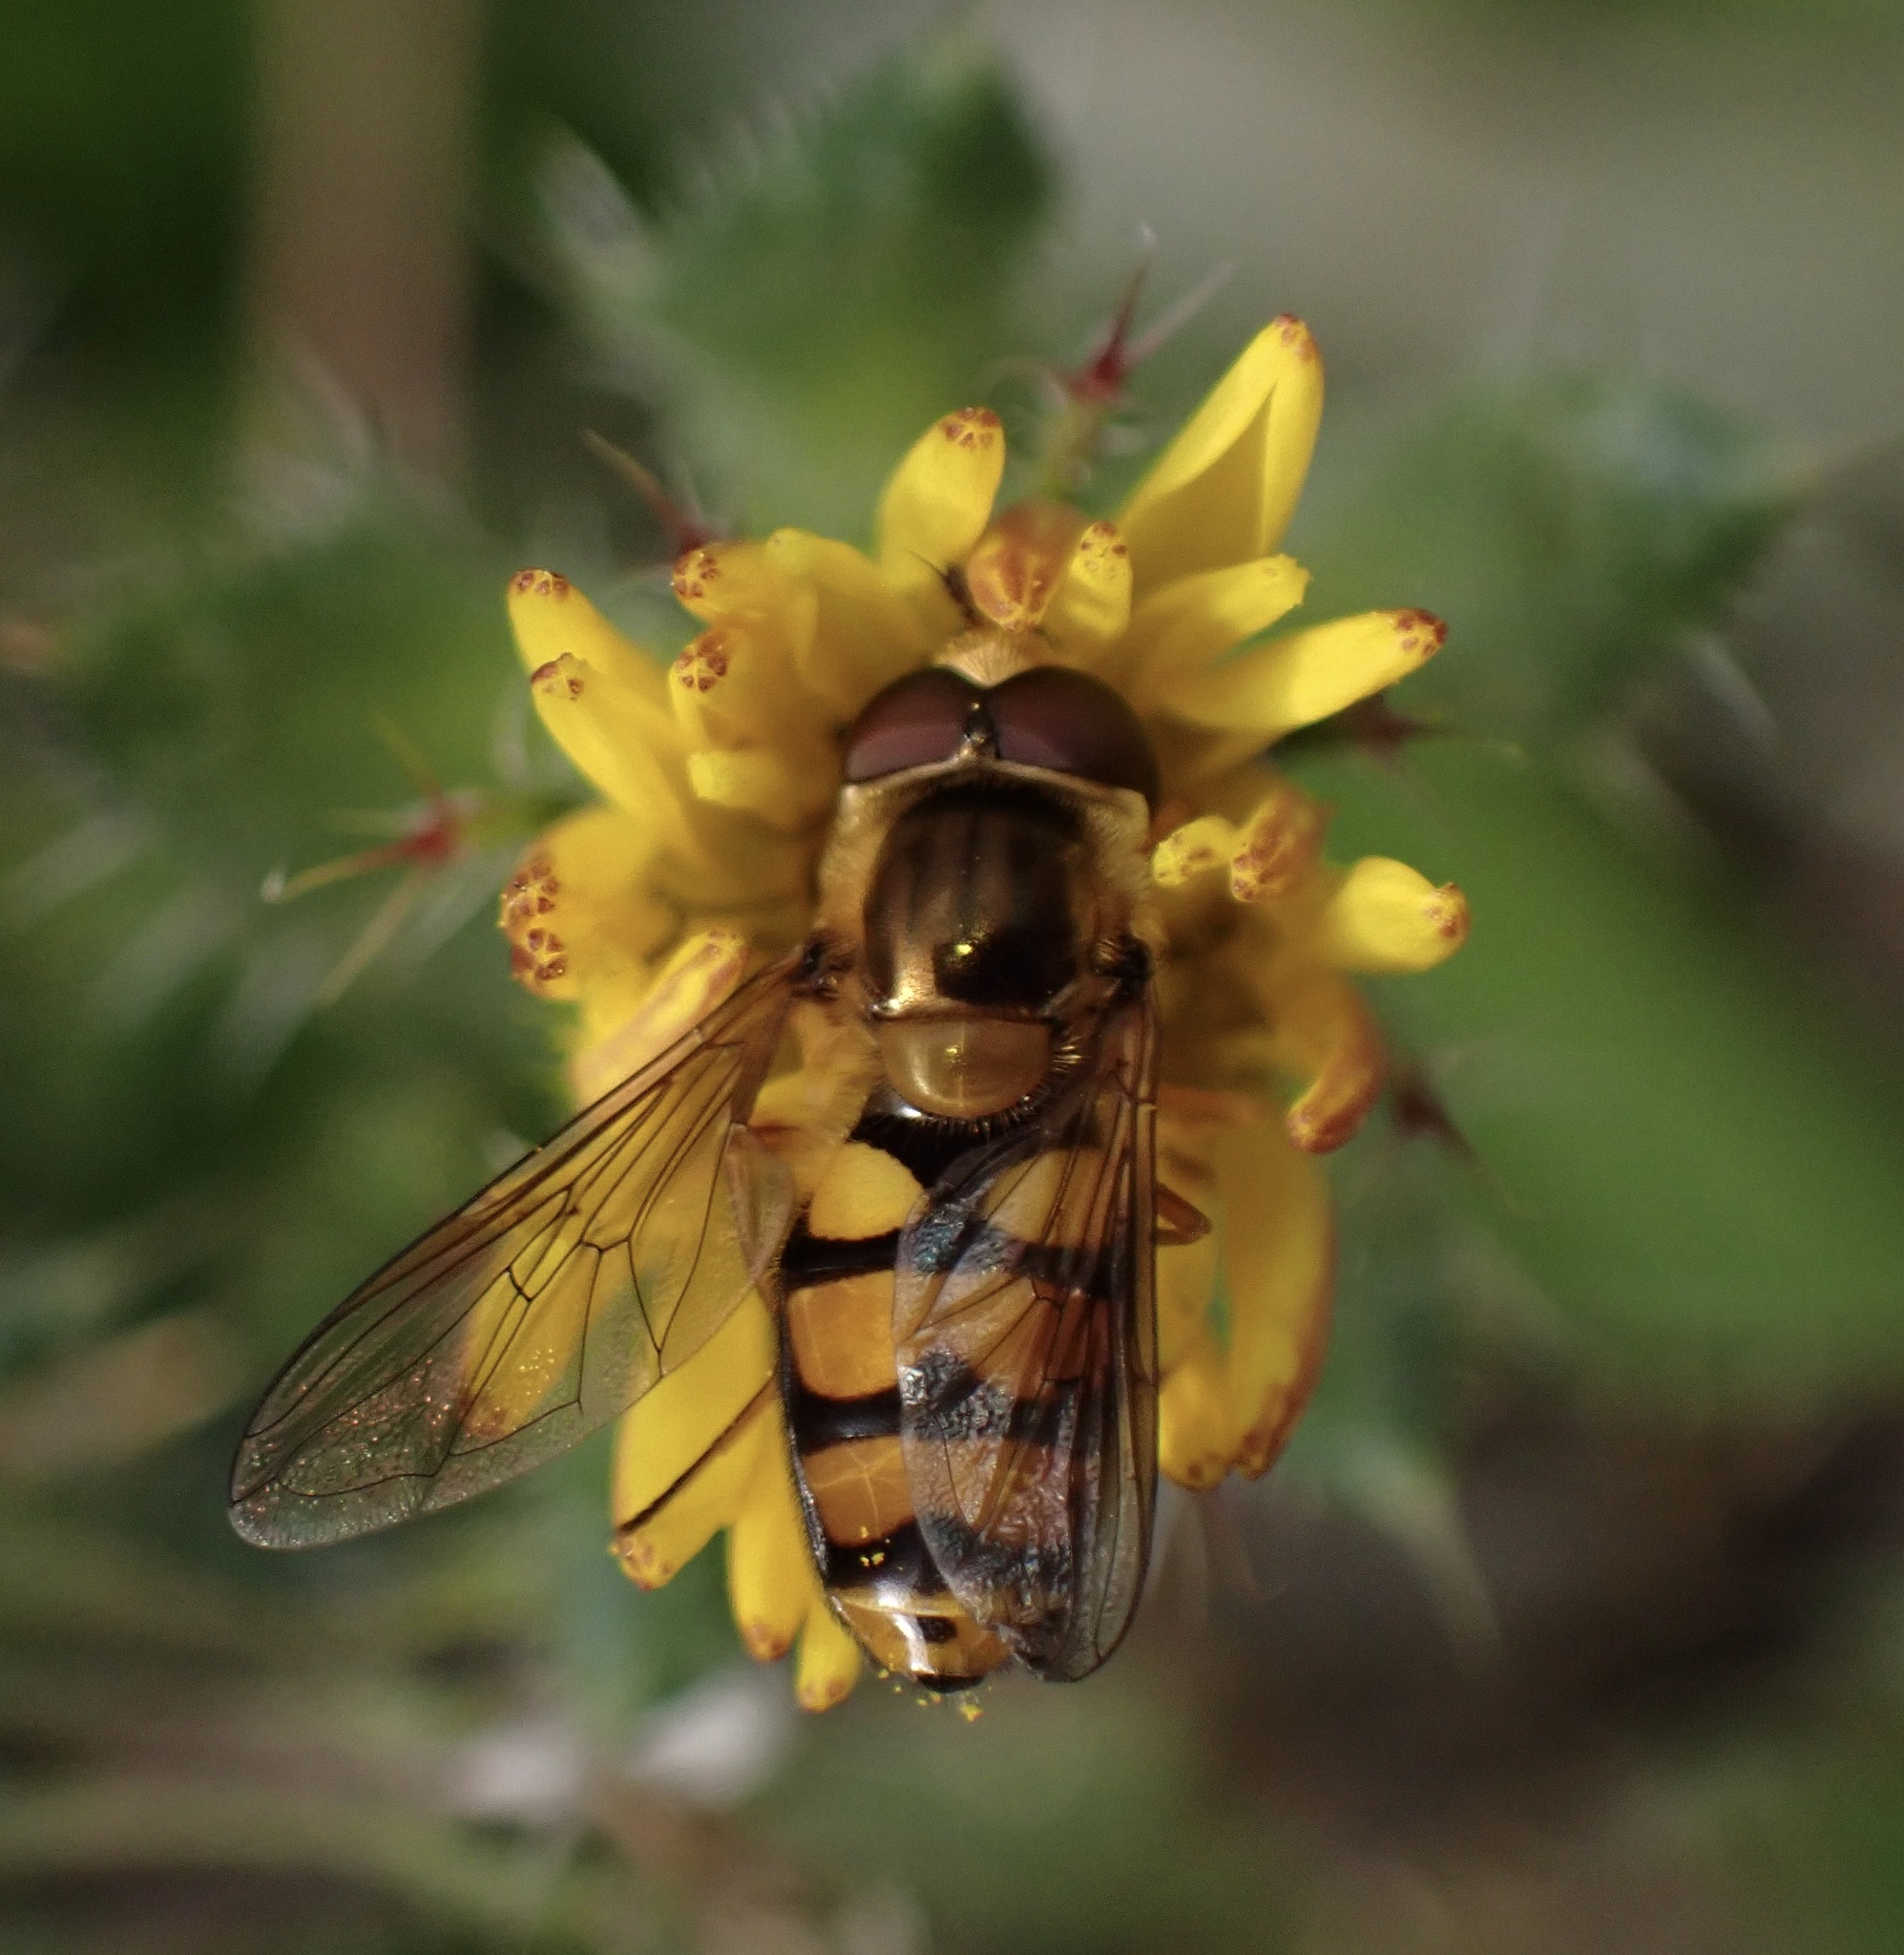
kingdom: Animalia
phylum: Arthropoda
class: Insecta
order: Diptera
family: Syrphidae
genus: Eupeodes
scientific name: Eupeodes latifasciatus
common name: Variable aphideater
